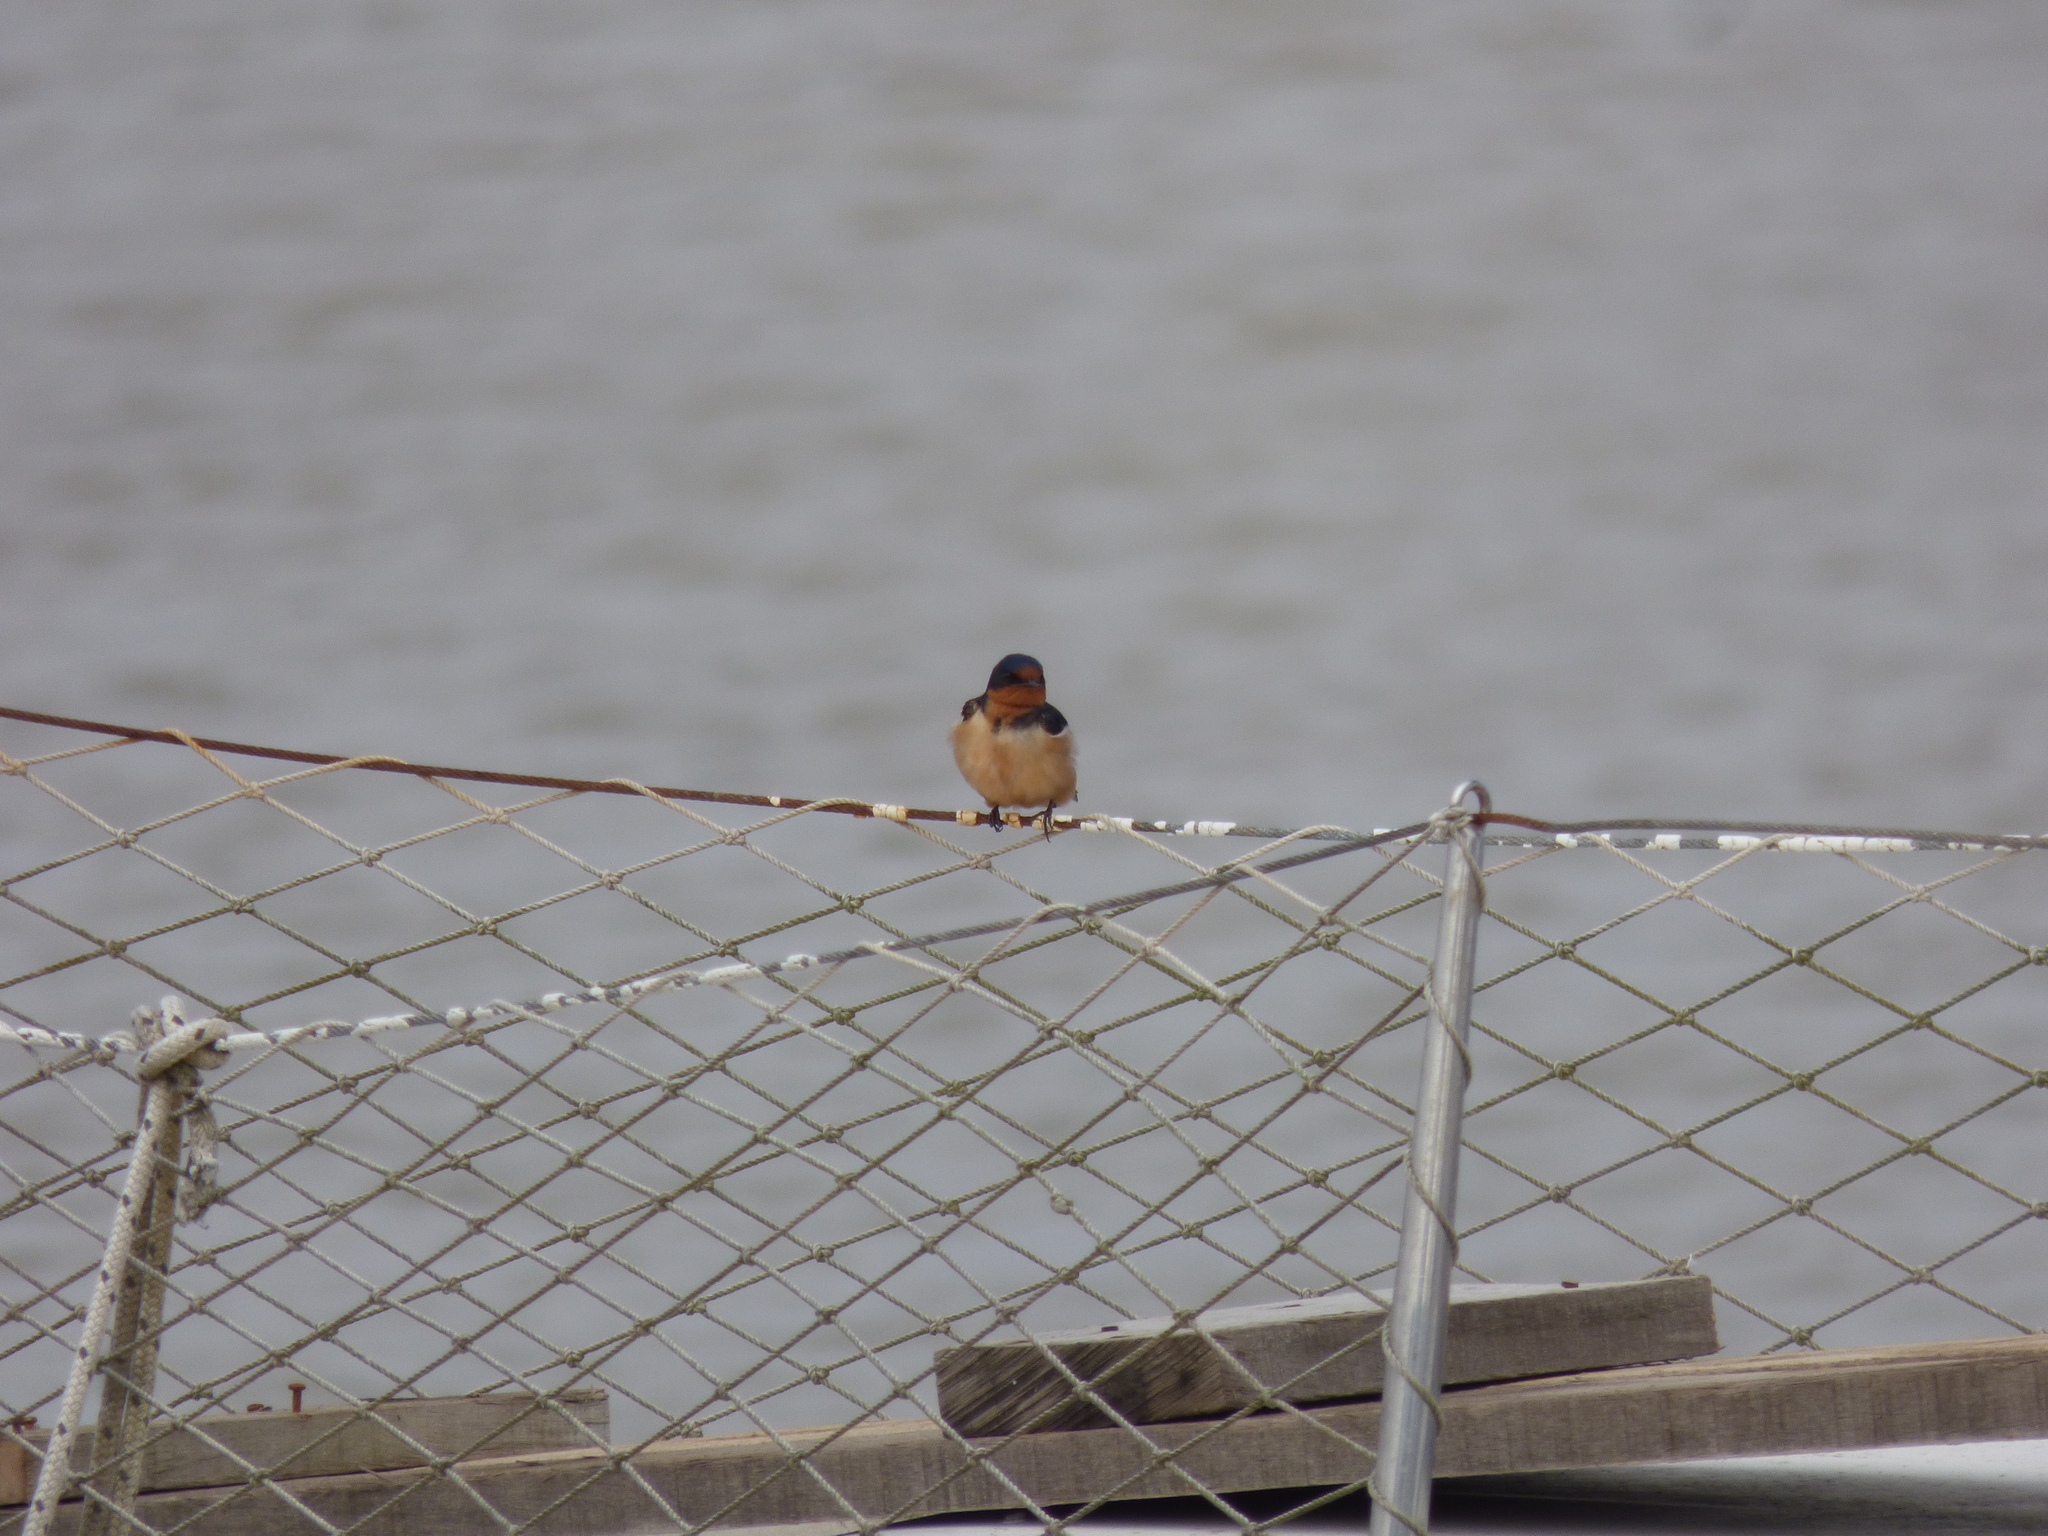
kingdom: Animalia
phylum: Chordata
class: Aves
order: Passeriformes
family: Hirundinidae
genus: Hirundo
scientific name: Hirundo rustica
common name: Barn swallow
